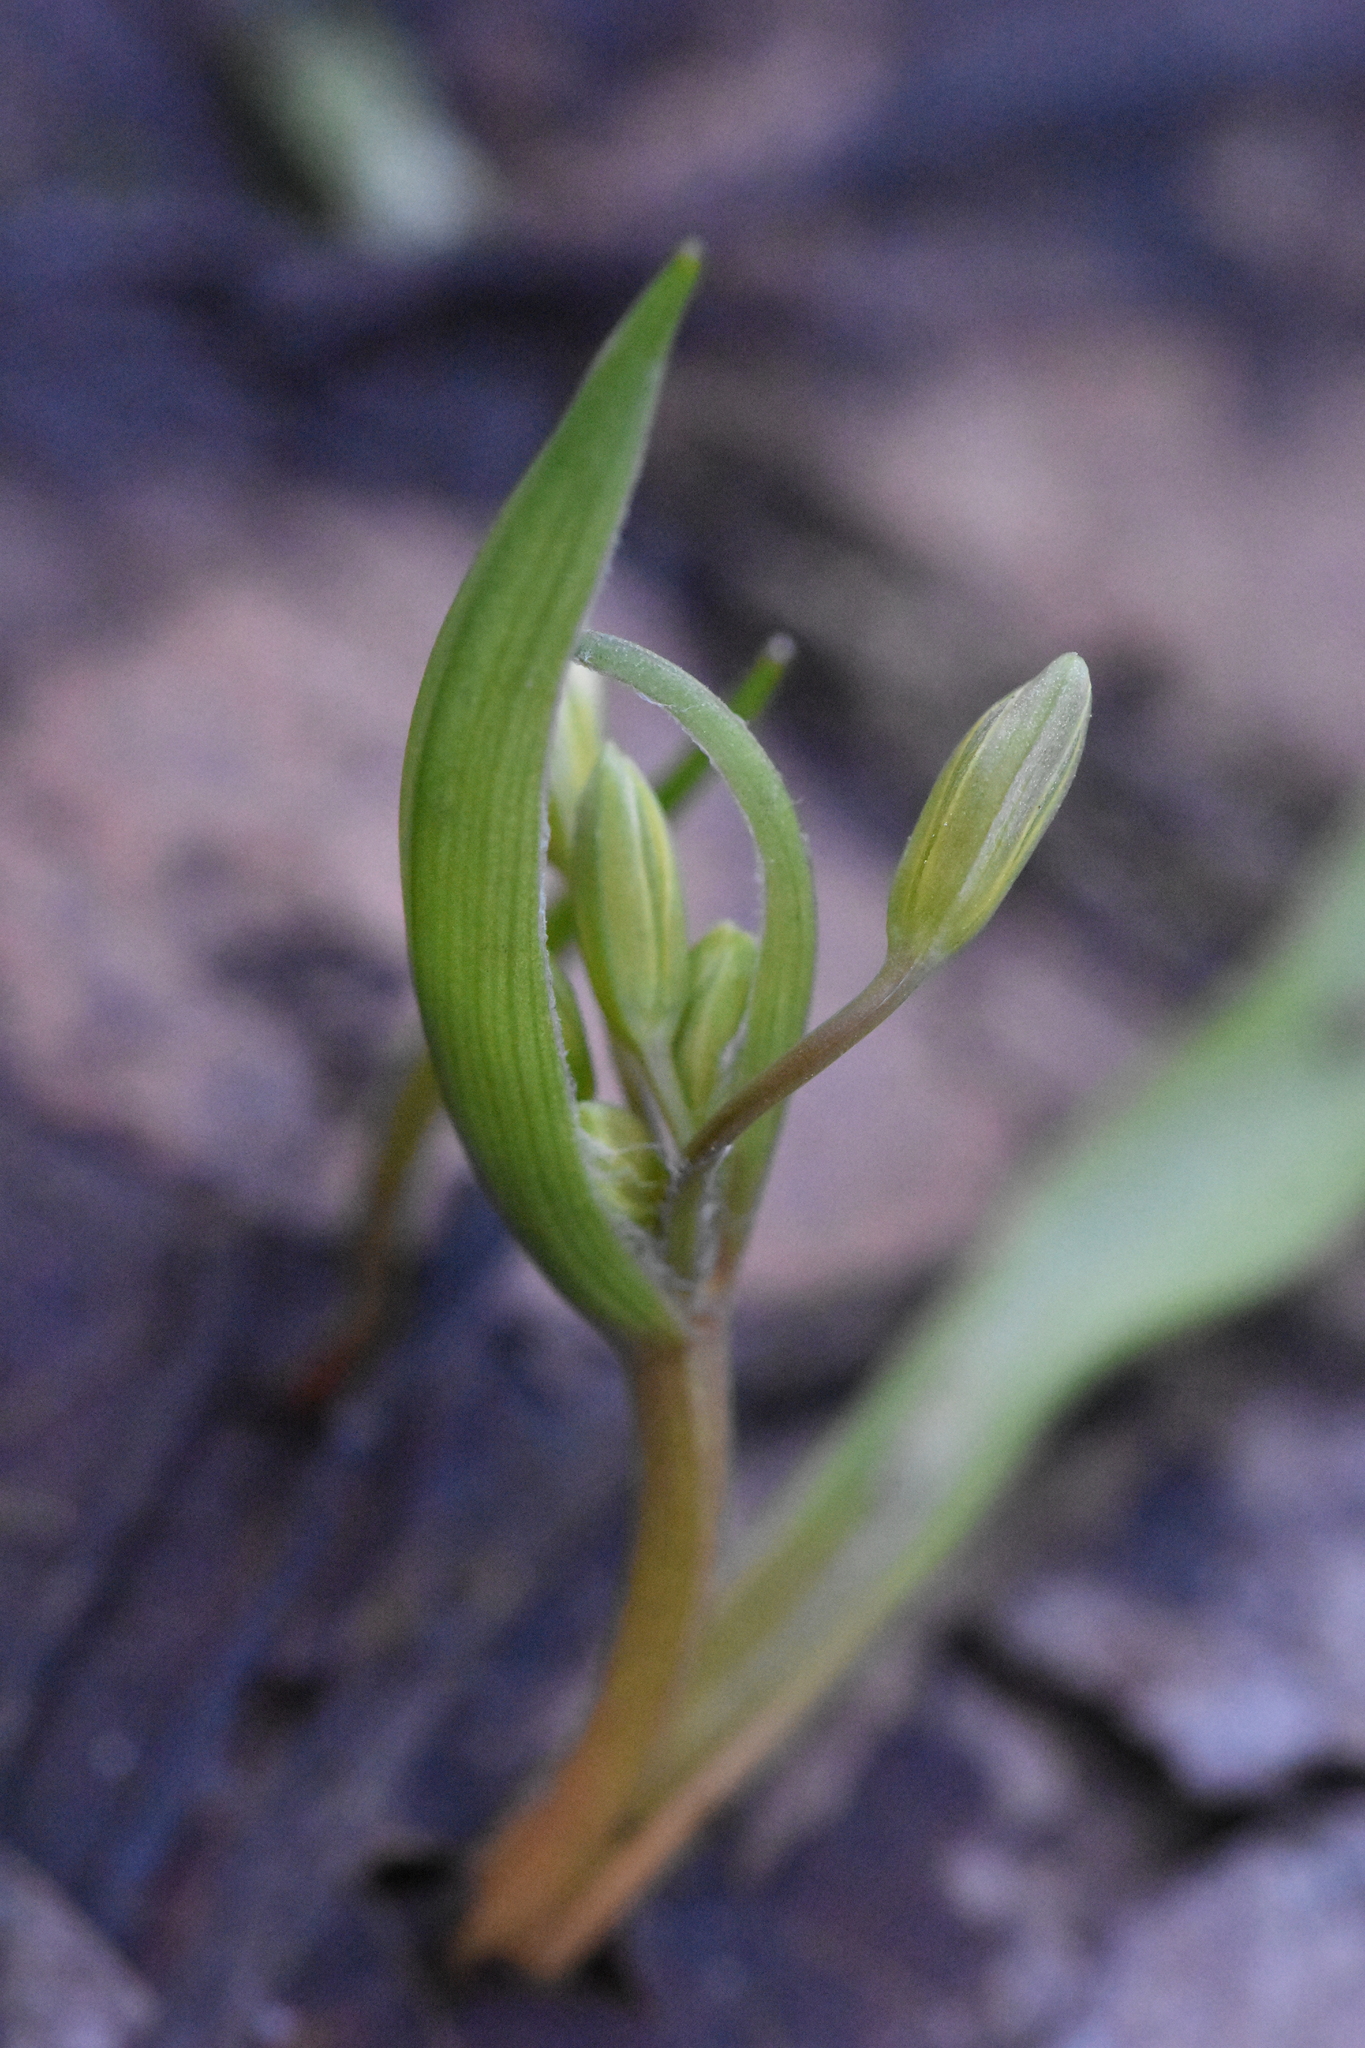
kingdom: Plantae
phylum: Tracheophyta
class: Liliopsida
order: Liliales
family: Liliaceae
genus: Gagea
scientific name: Gagea lutea
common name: Yellow star-of-bethlehem
